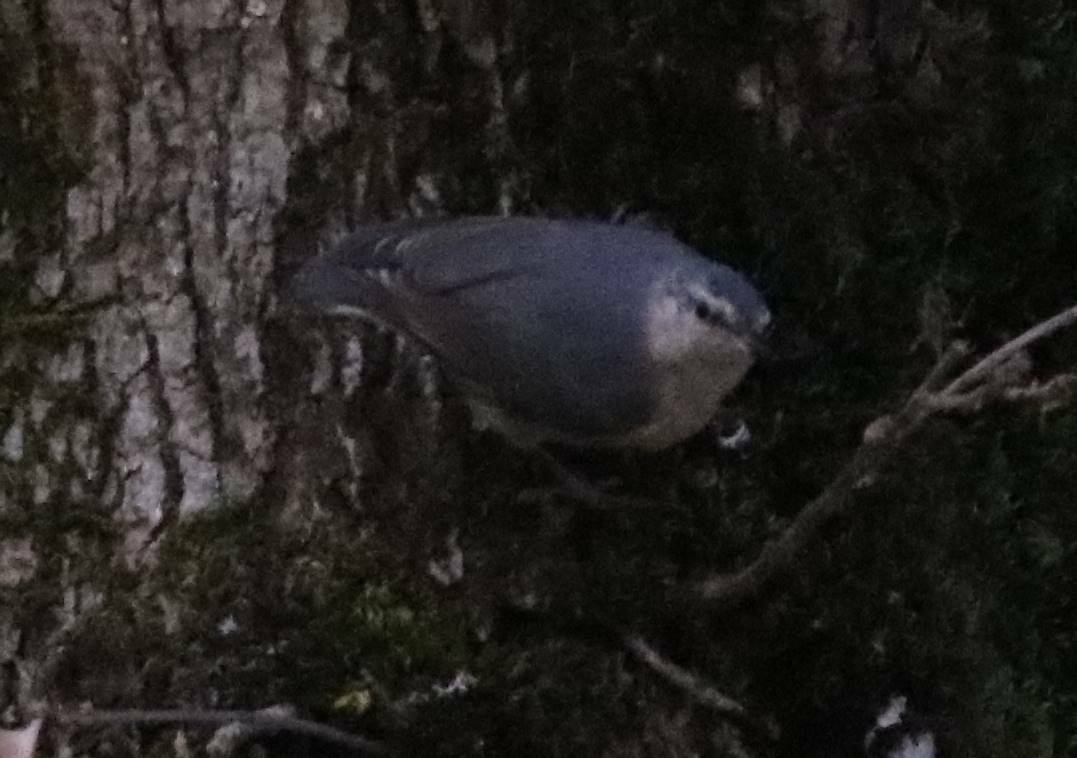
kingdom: Animalia
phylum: Chordata
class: Aves
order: Passeriformes
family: Sittidae
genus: Sitta
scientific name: Sitta ledanti
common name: Algerian nuthatch
